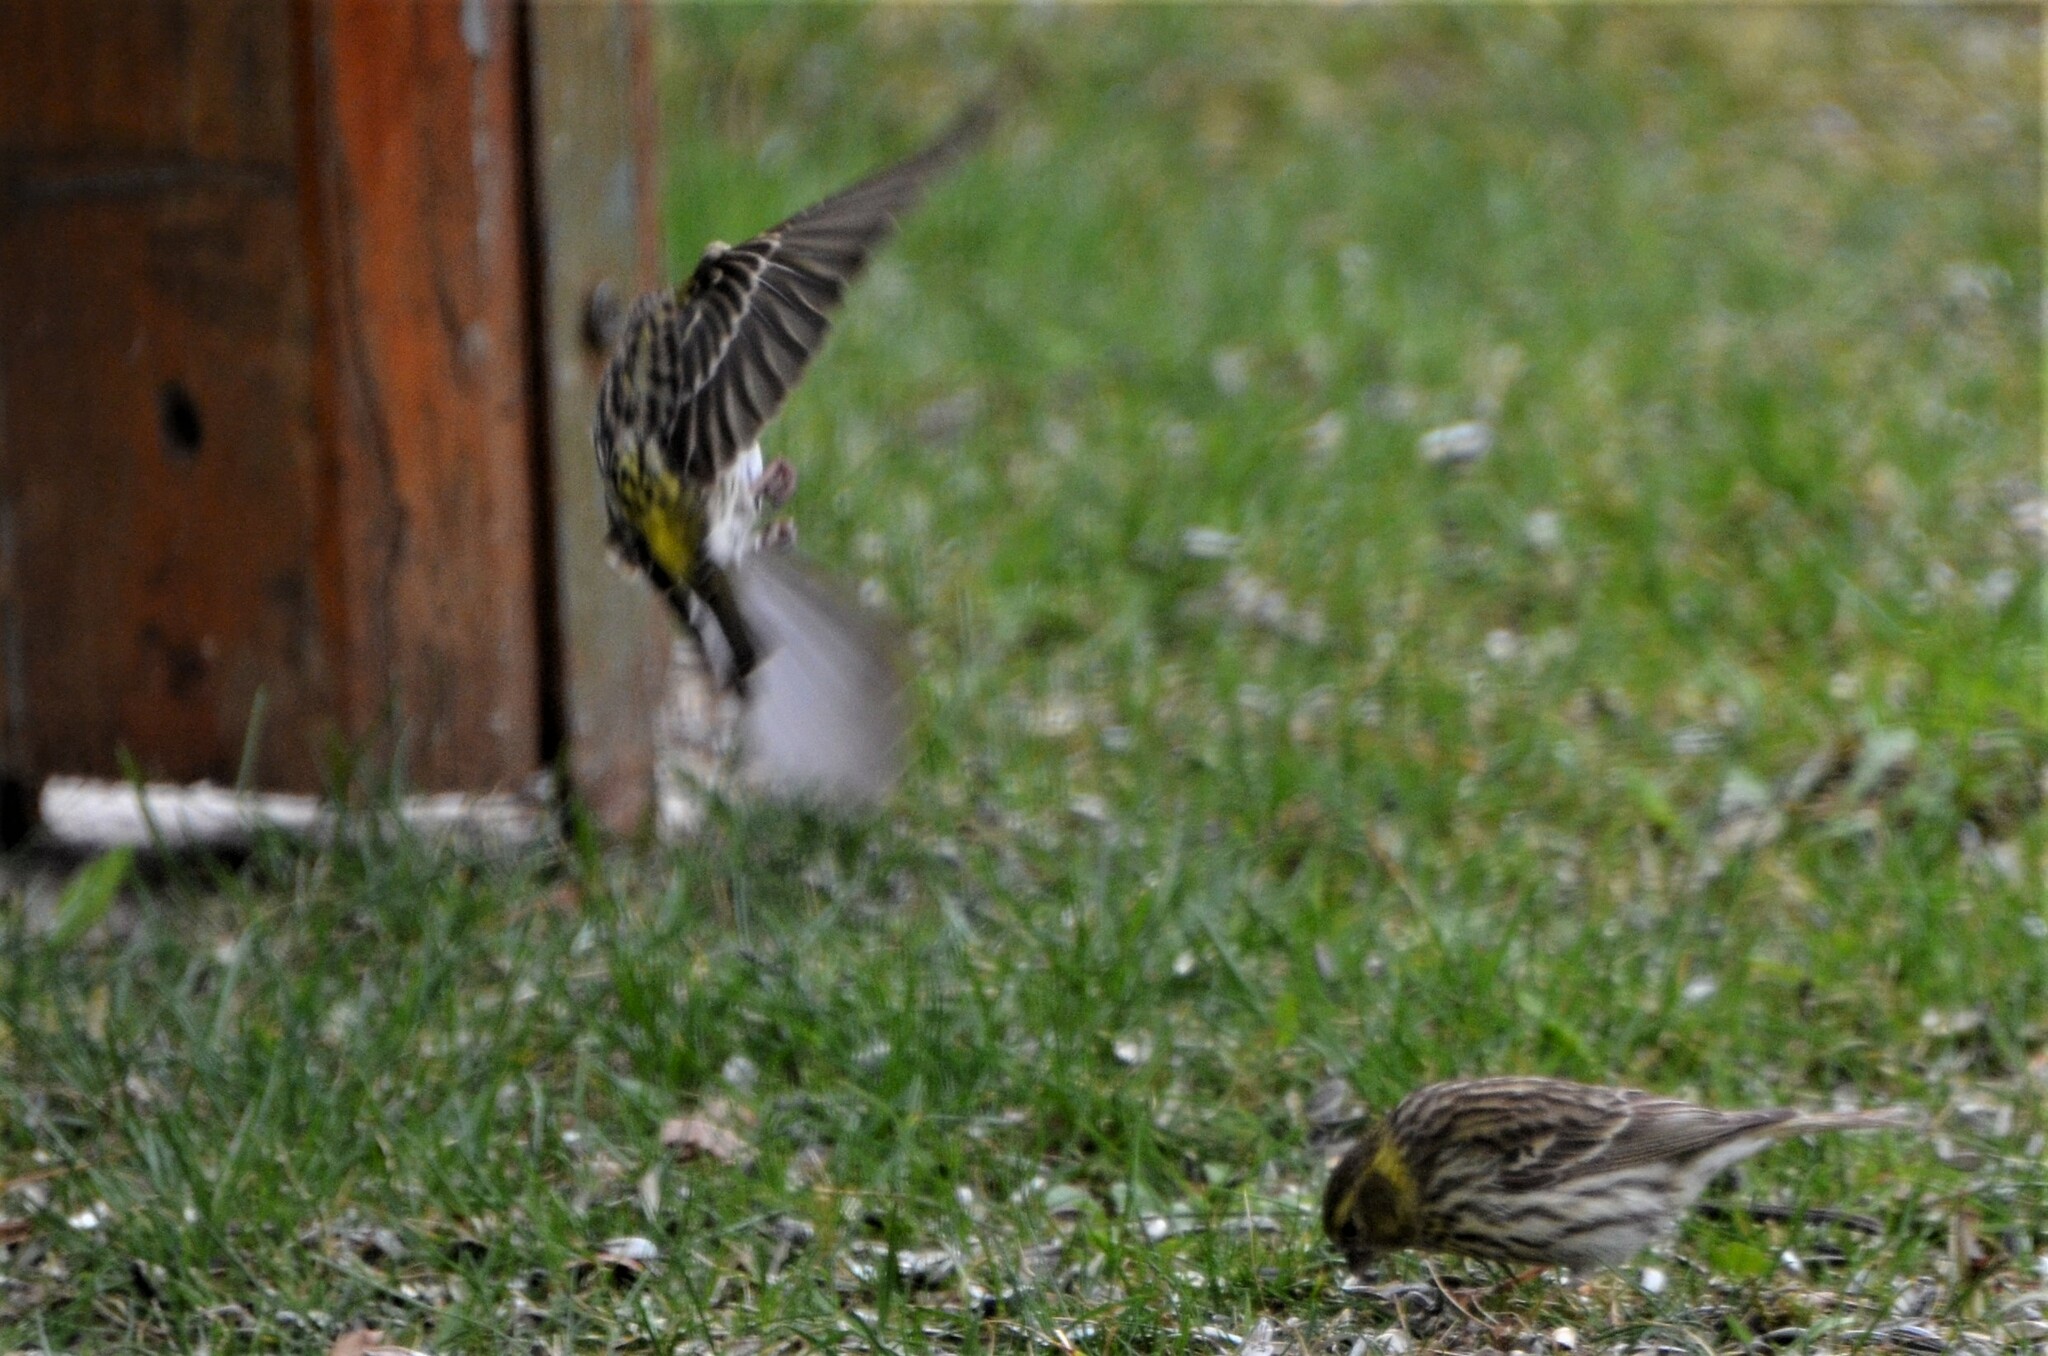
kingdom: Animalia
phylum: Chordata
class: Aves
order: Passeriformes
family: Fringillidae
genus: Serinus
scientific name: Serinus serinus
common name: European serin
